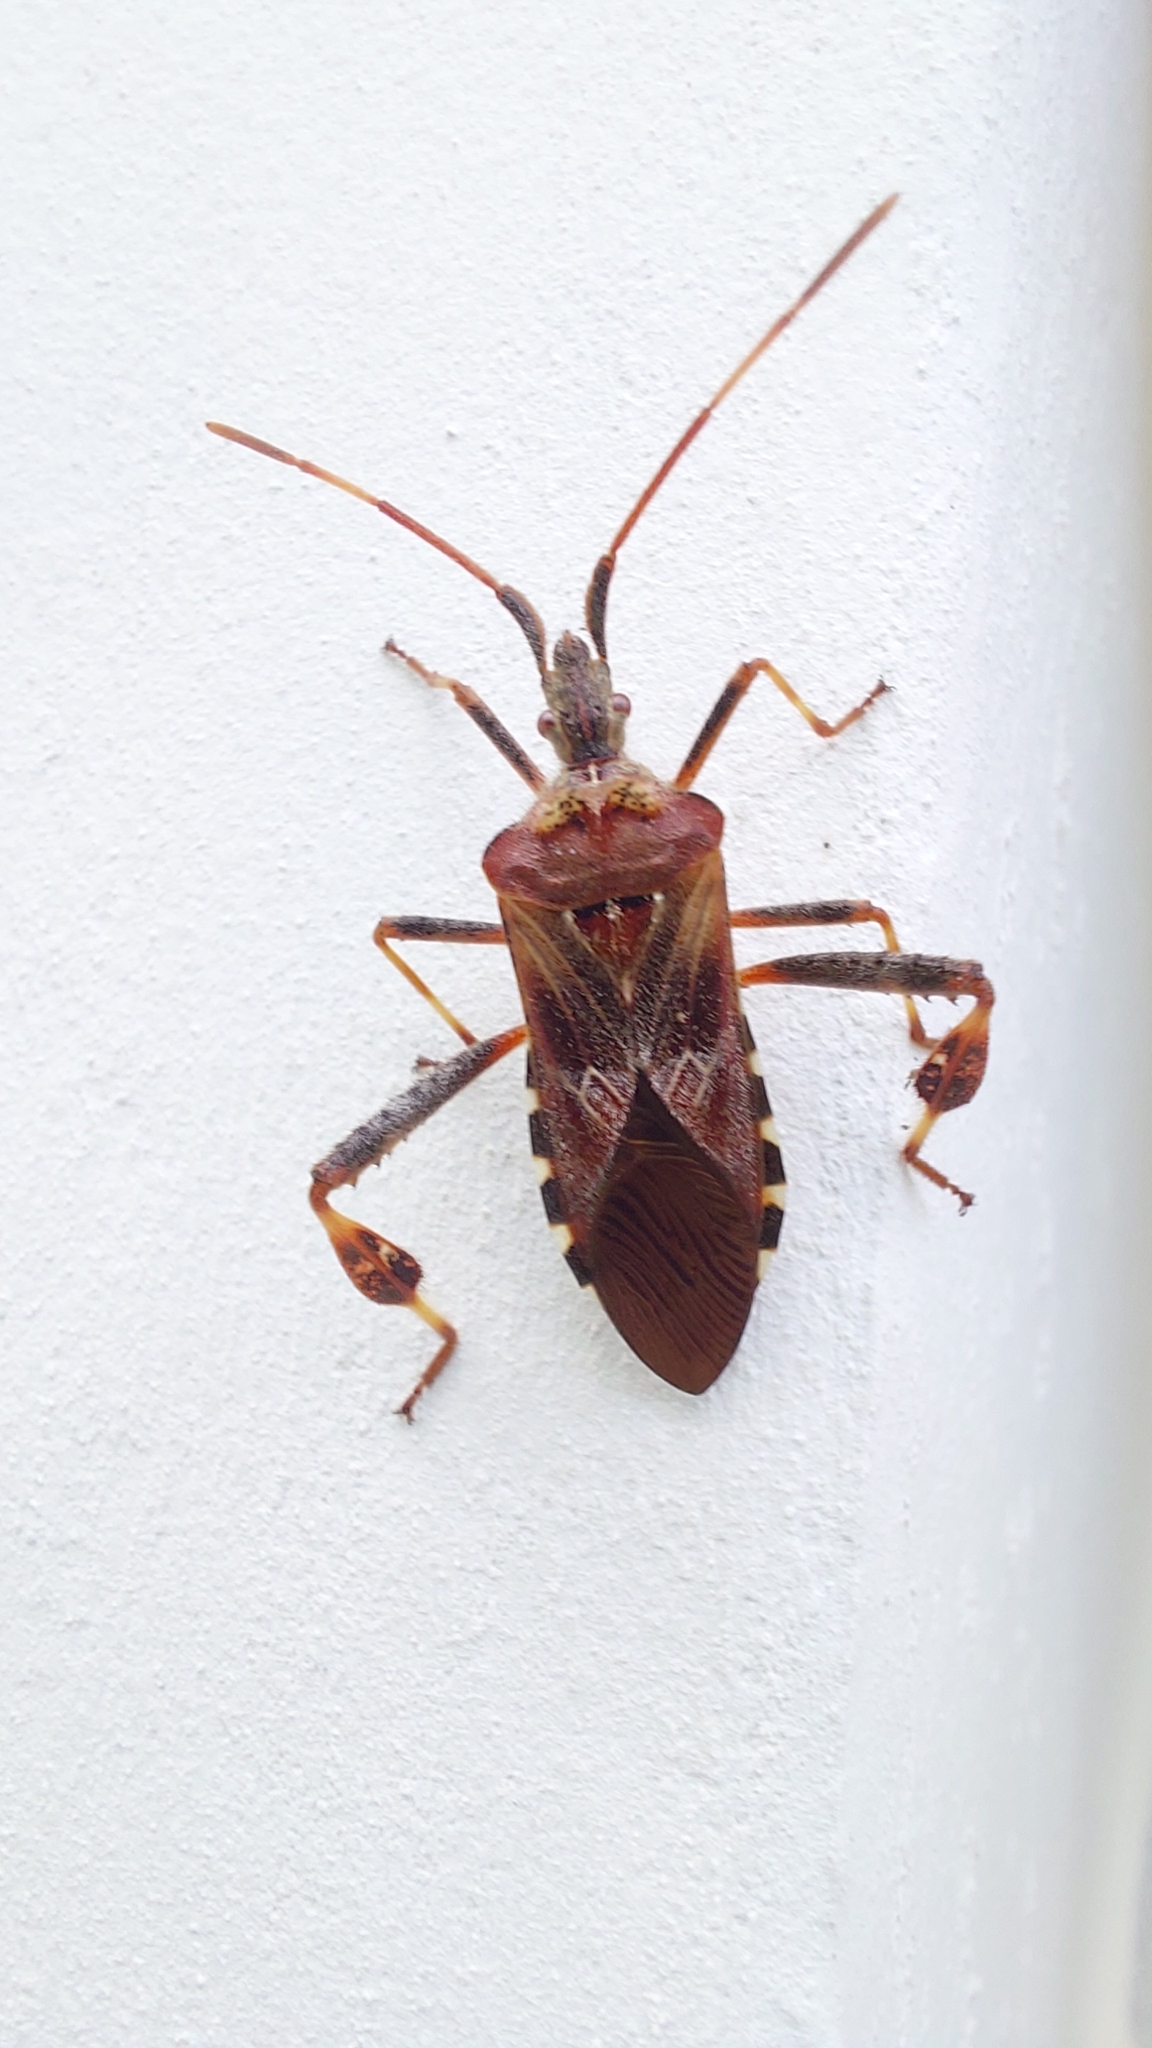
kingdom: Animalia
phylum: Arthropoda
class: Insecta
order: Hemiptera
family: Coreidae
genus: Leptoglossus
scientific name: Leptoglossus occidentalis
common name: Western conifer-seed bug
